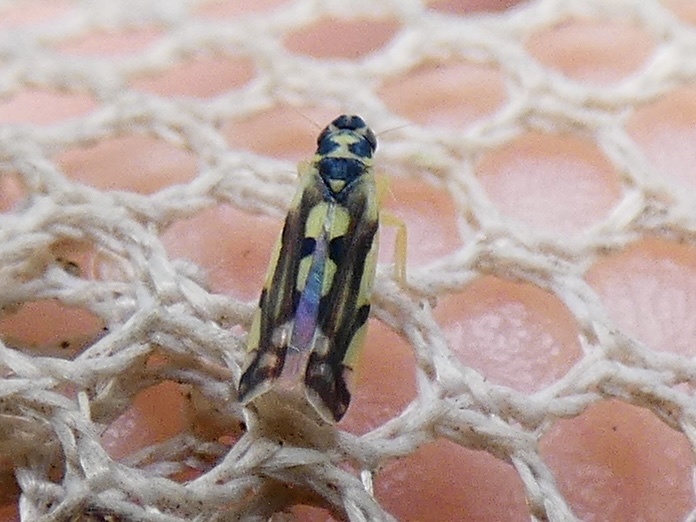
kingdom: Animalia
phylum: Arthropoda
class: Insecta
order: Hemiptera
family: Cicadellidae
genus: Eupteryx
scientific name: Eupteryx aurata
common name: Leafhopper
